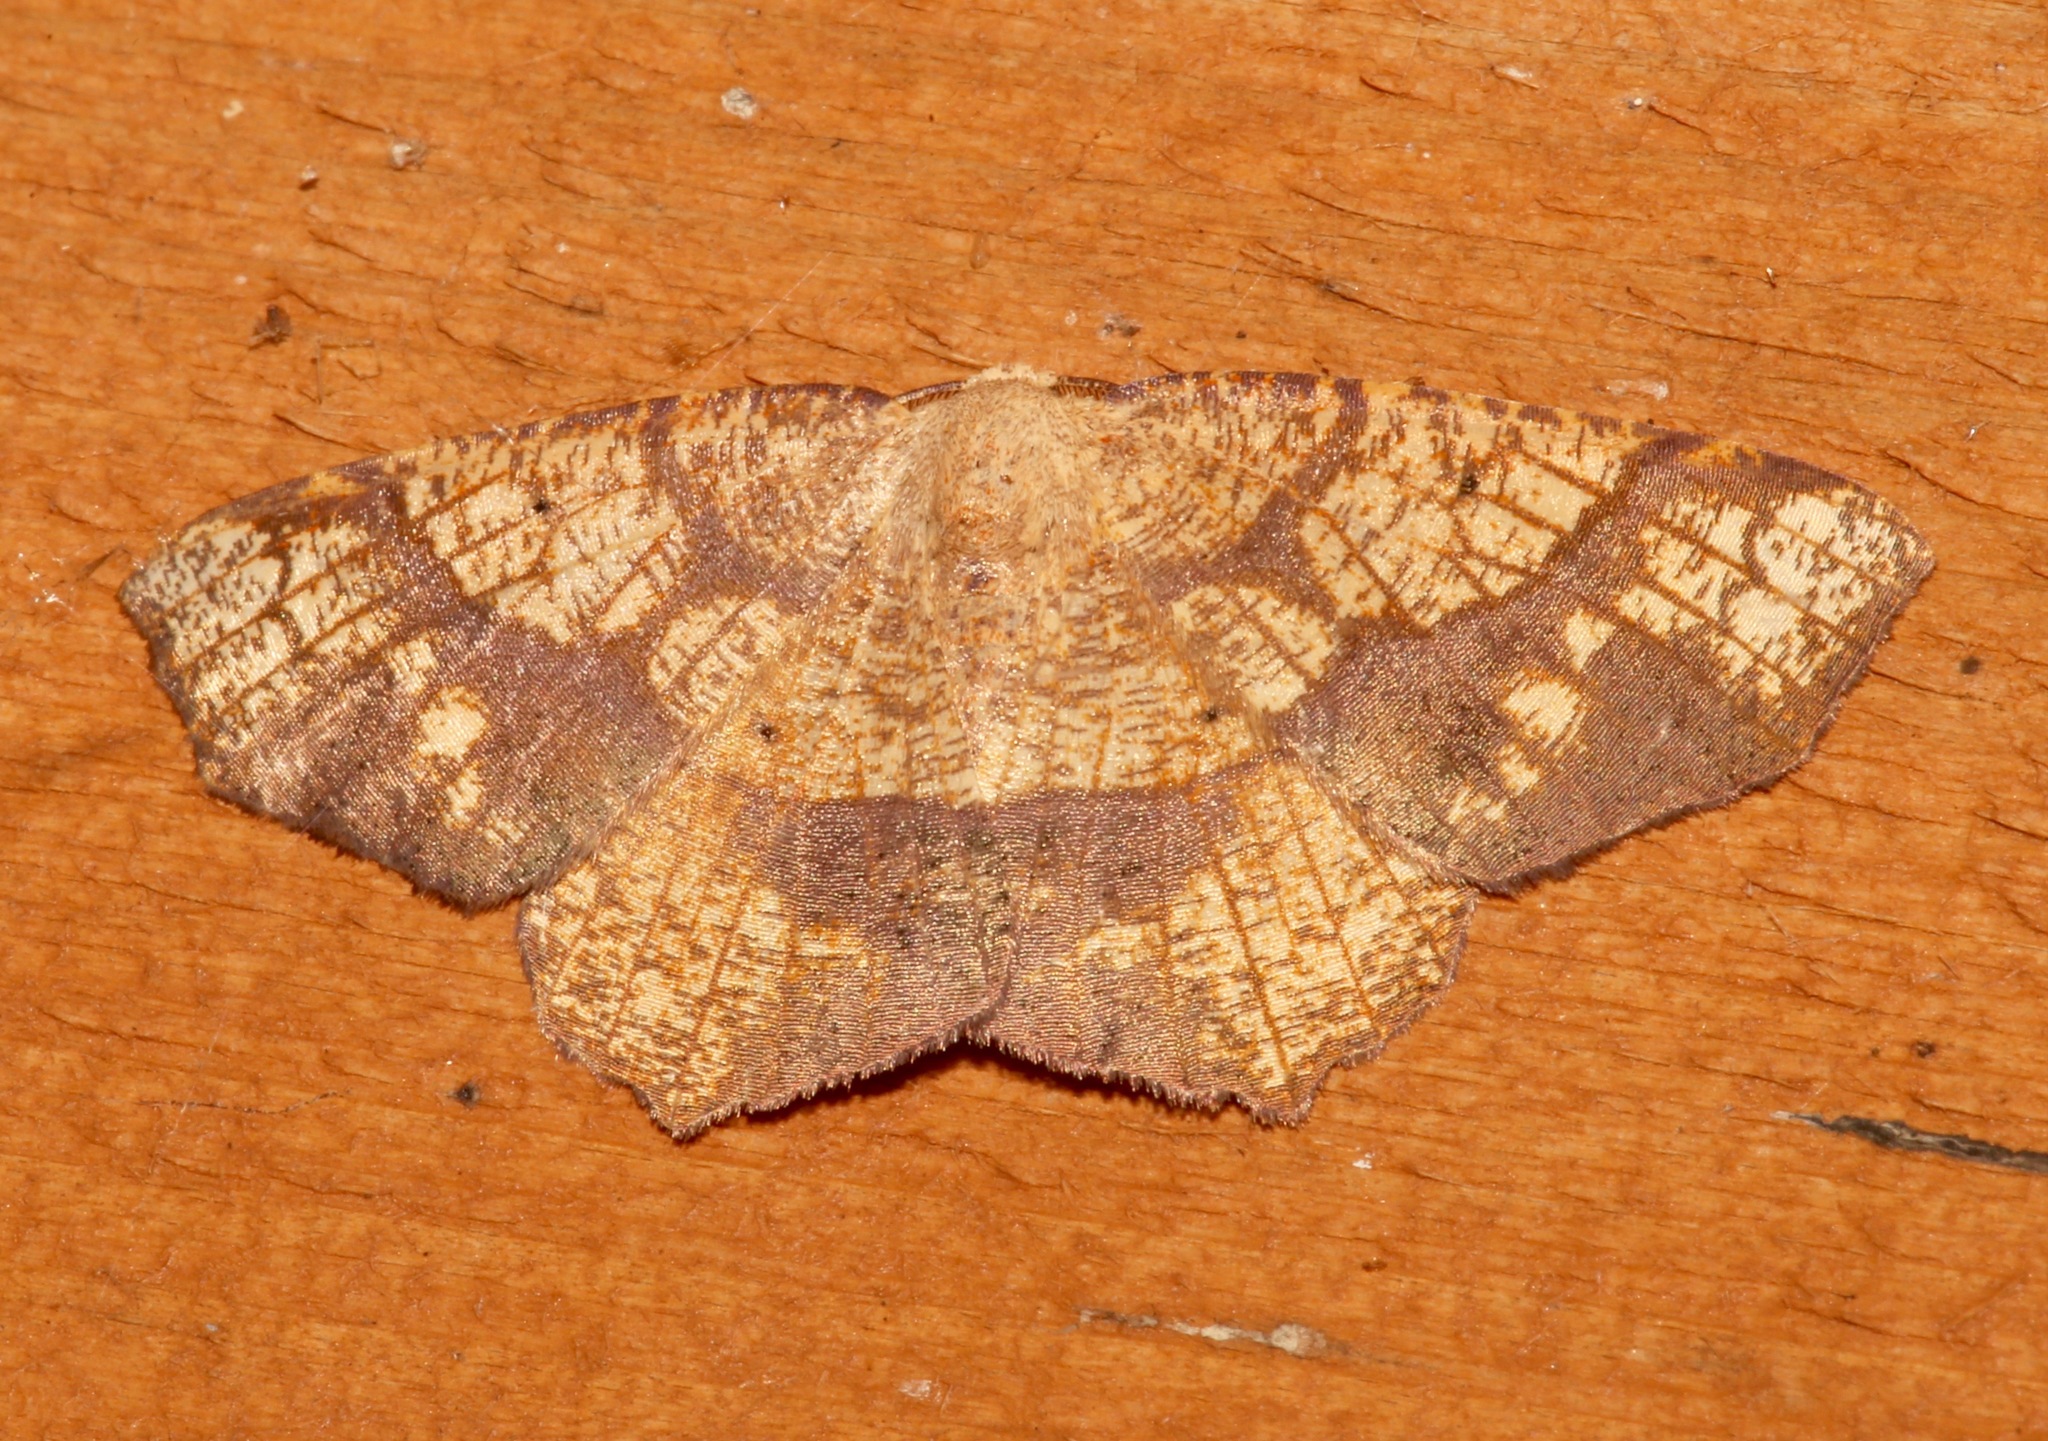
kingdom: Animalia
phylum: Arthropoda
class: Insecta
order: Lepidoptera
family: Geometridae
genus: Besma
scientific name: Besma quercivoraria
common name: Oak besma
